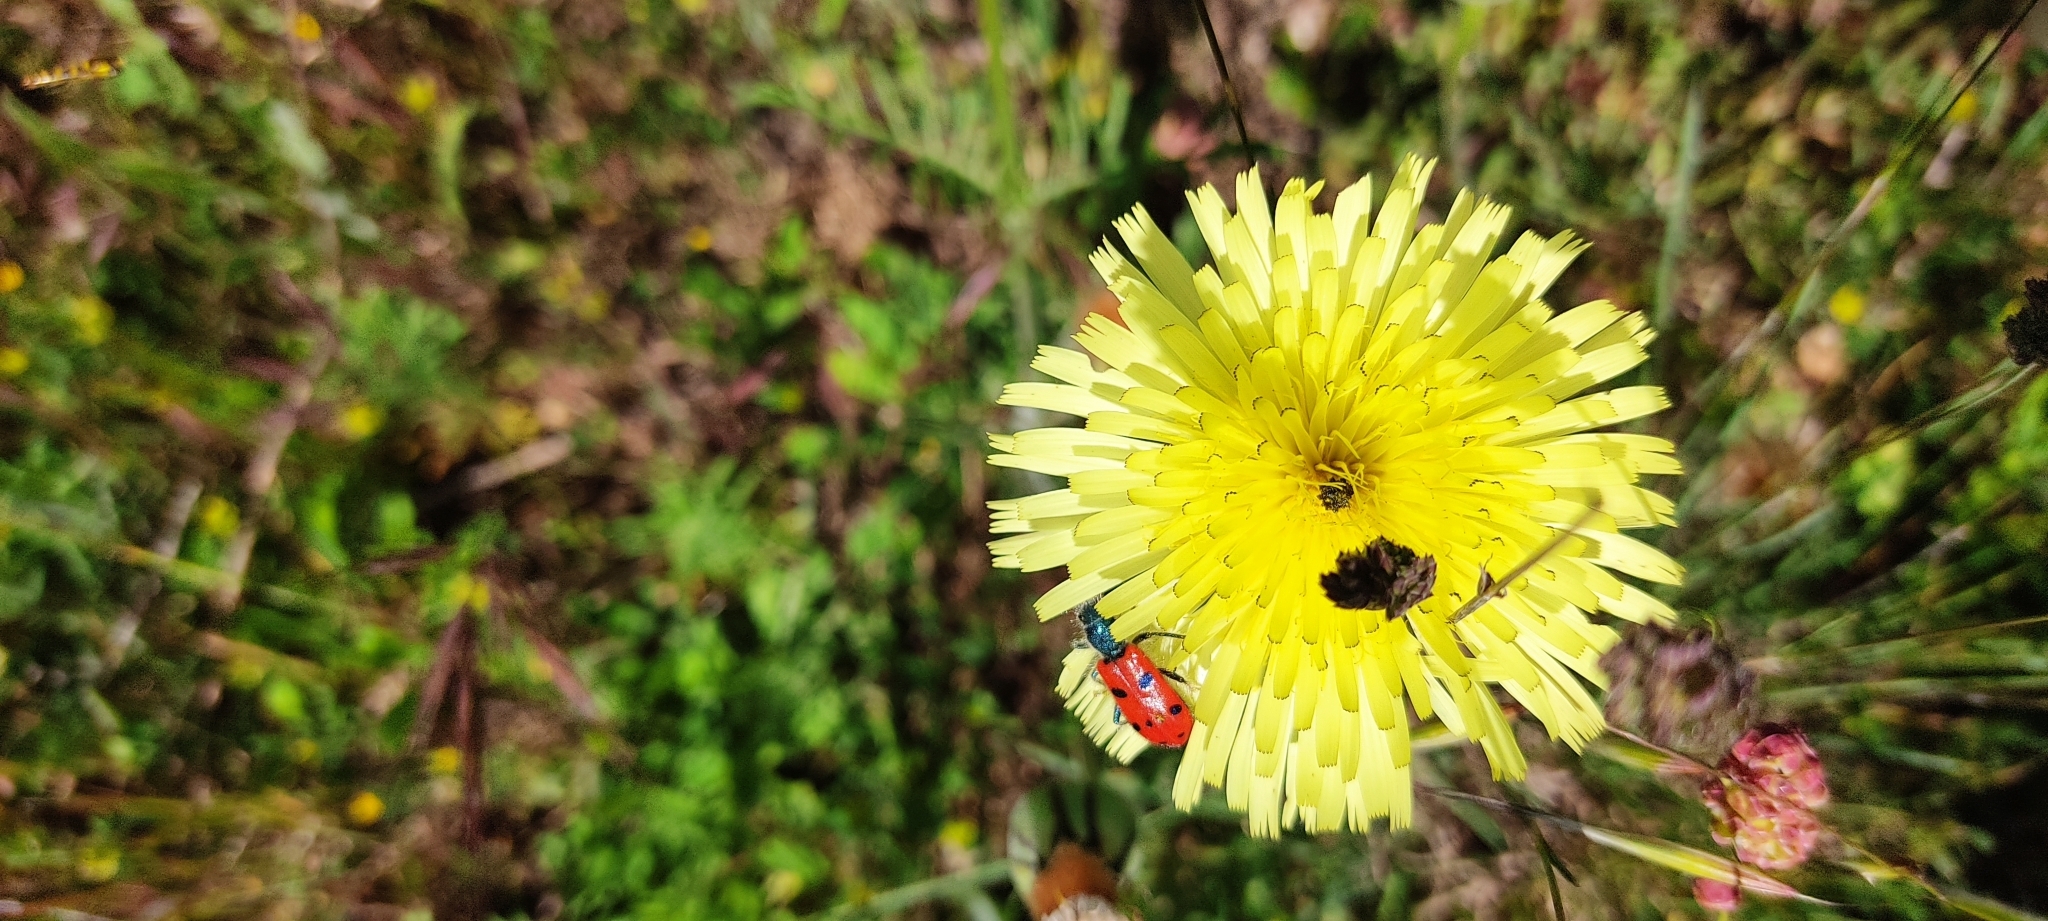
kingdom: Animalia
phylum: Arthropoda
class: Insecta
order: Coleoptera
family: Cleridae
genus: Trichodes
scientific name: Trichodes octopunctatus
